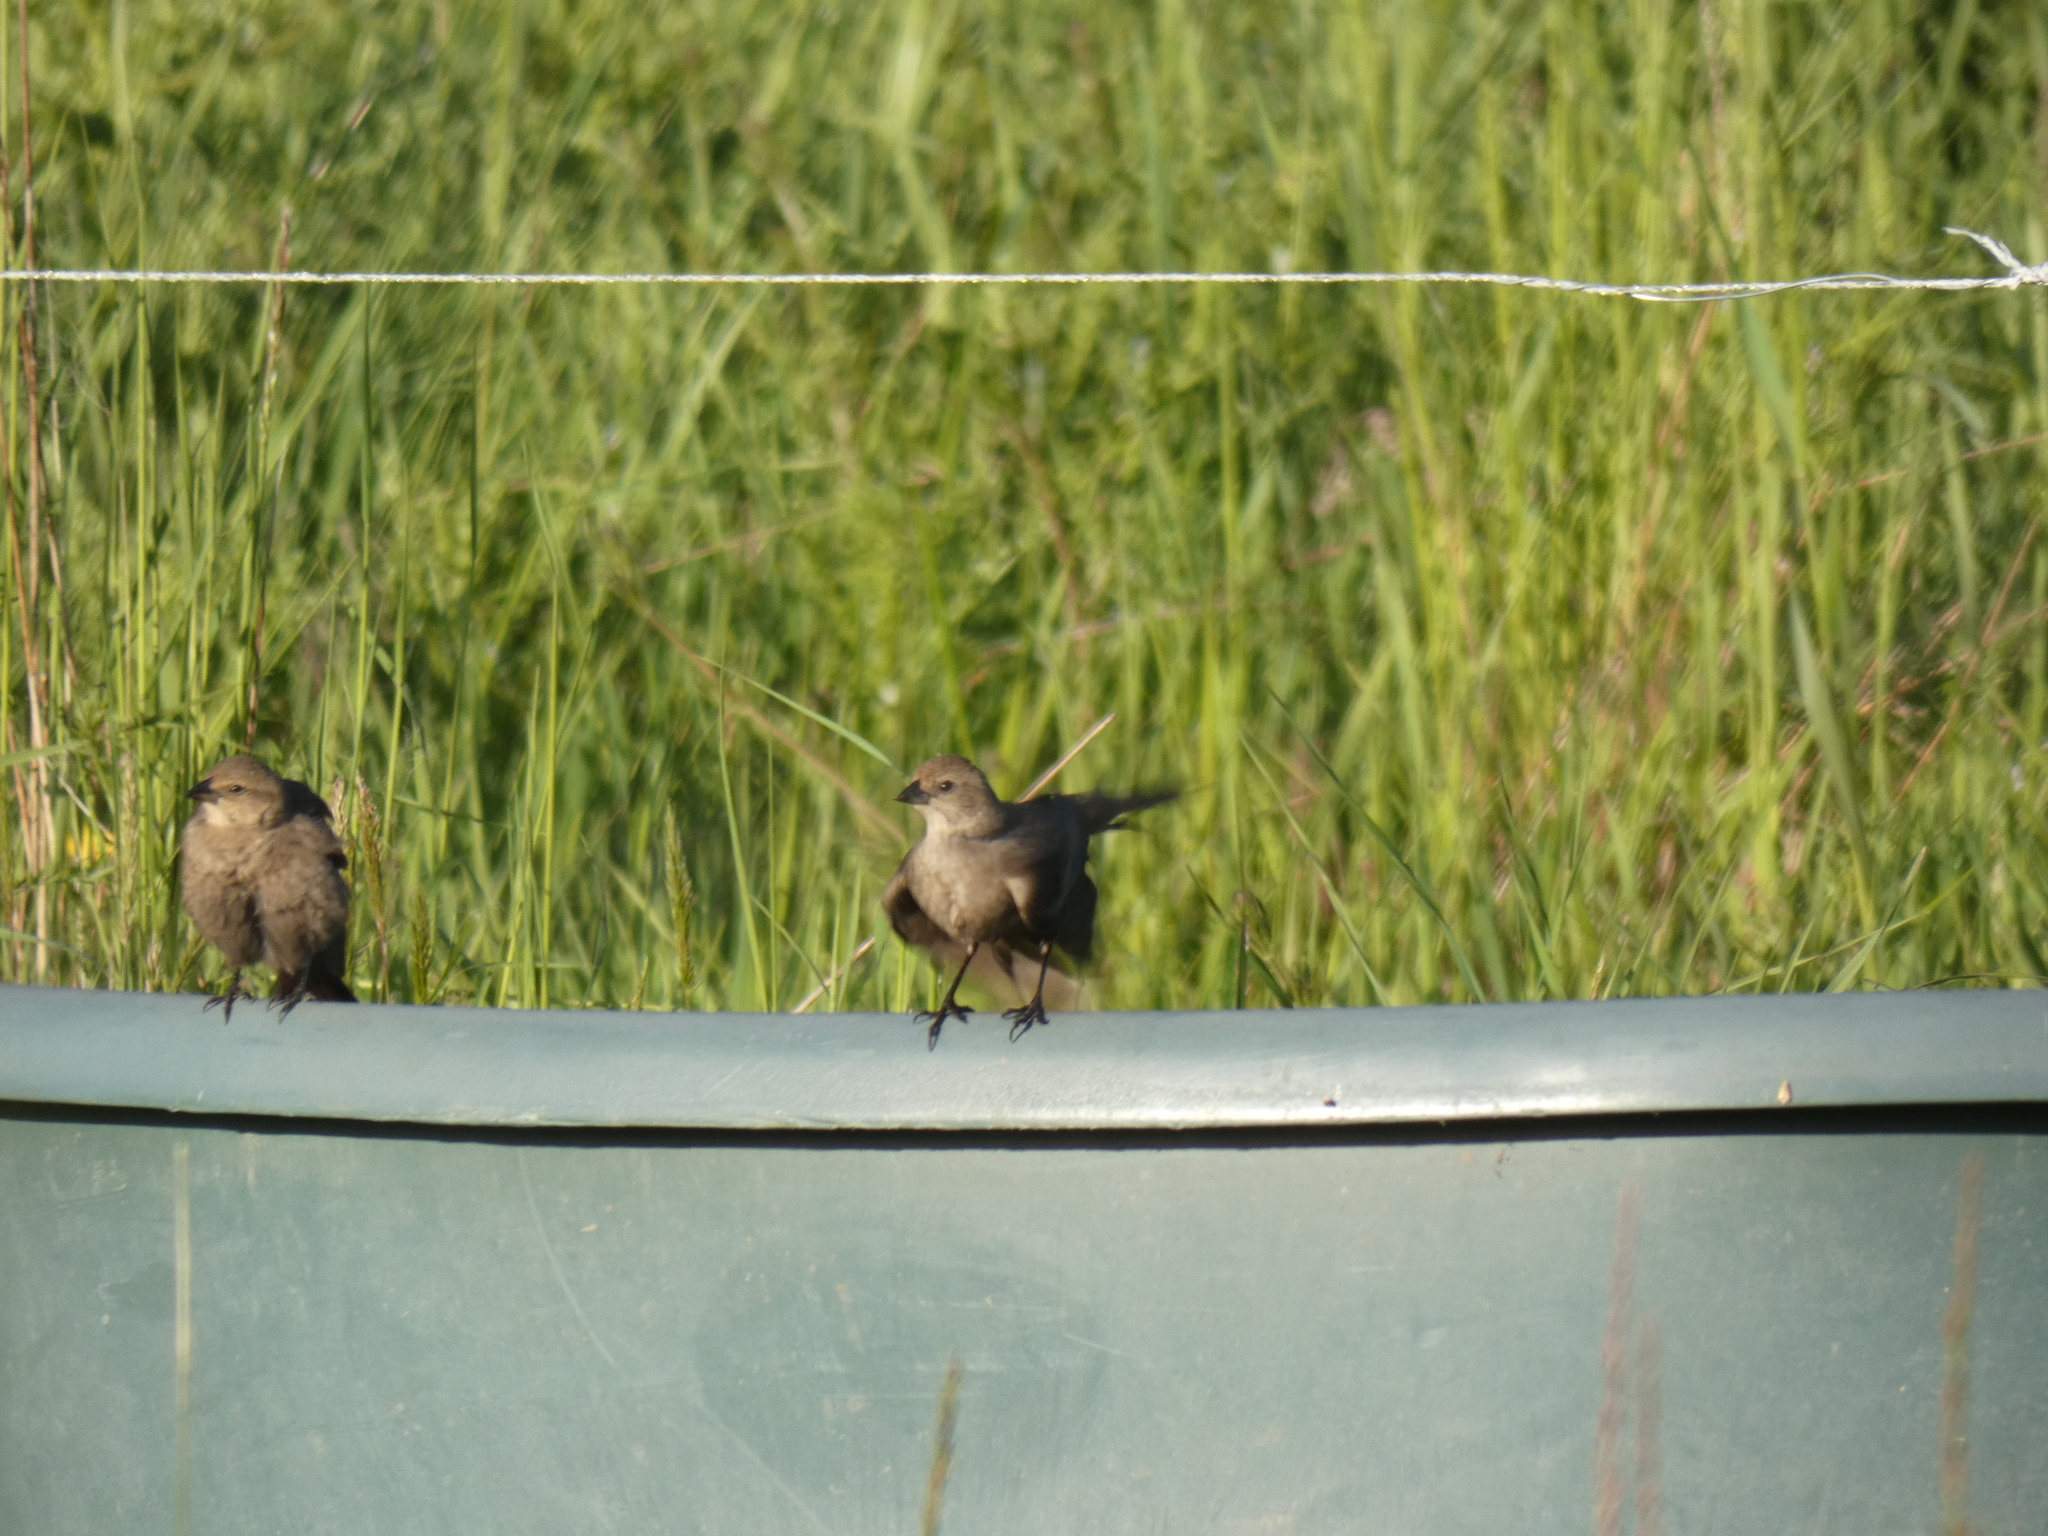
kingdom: Animalia
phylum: Chordata
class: Aves
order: Passeriformes
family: Icteridae
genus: Molothrus
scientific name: Molothrus ater
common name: Brown-headed cowbird
